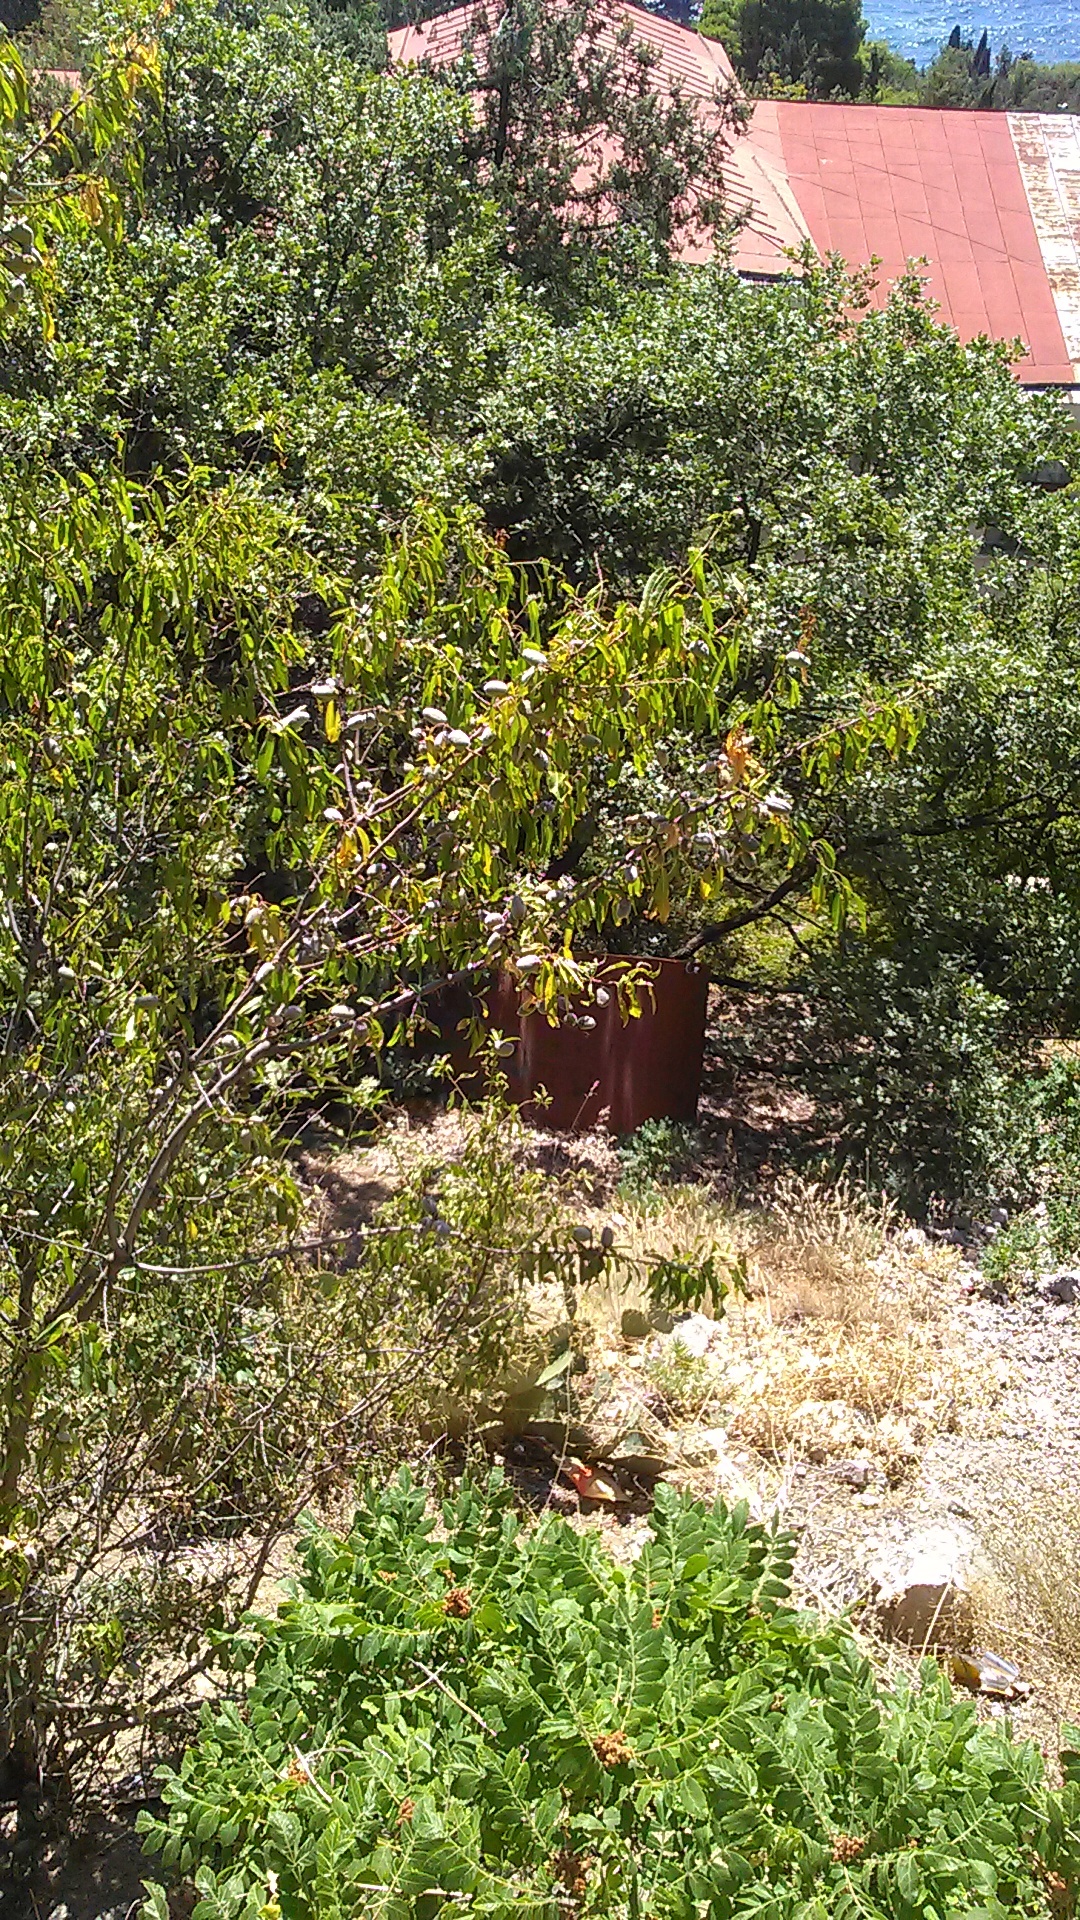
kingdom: Plantae
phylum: Tracheophyta
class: Magnoliopsida
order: Rosales
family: Rosaceae
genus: Prunus
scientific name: Prunus amygdalus
